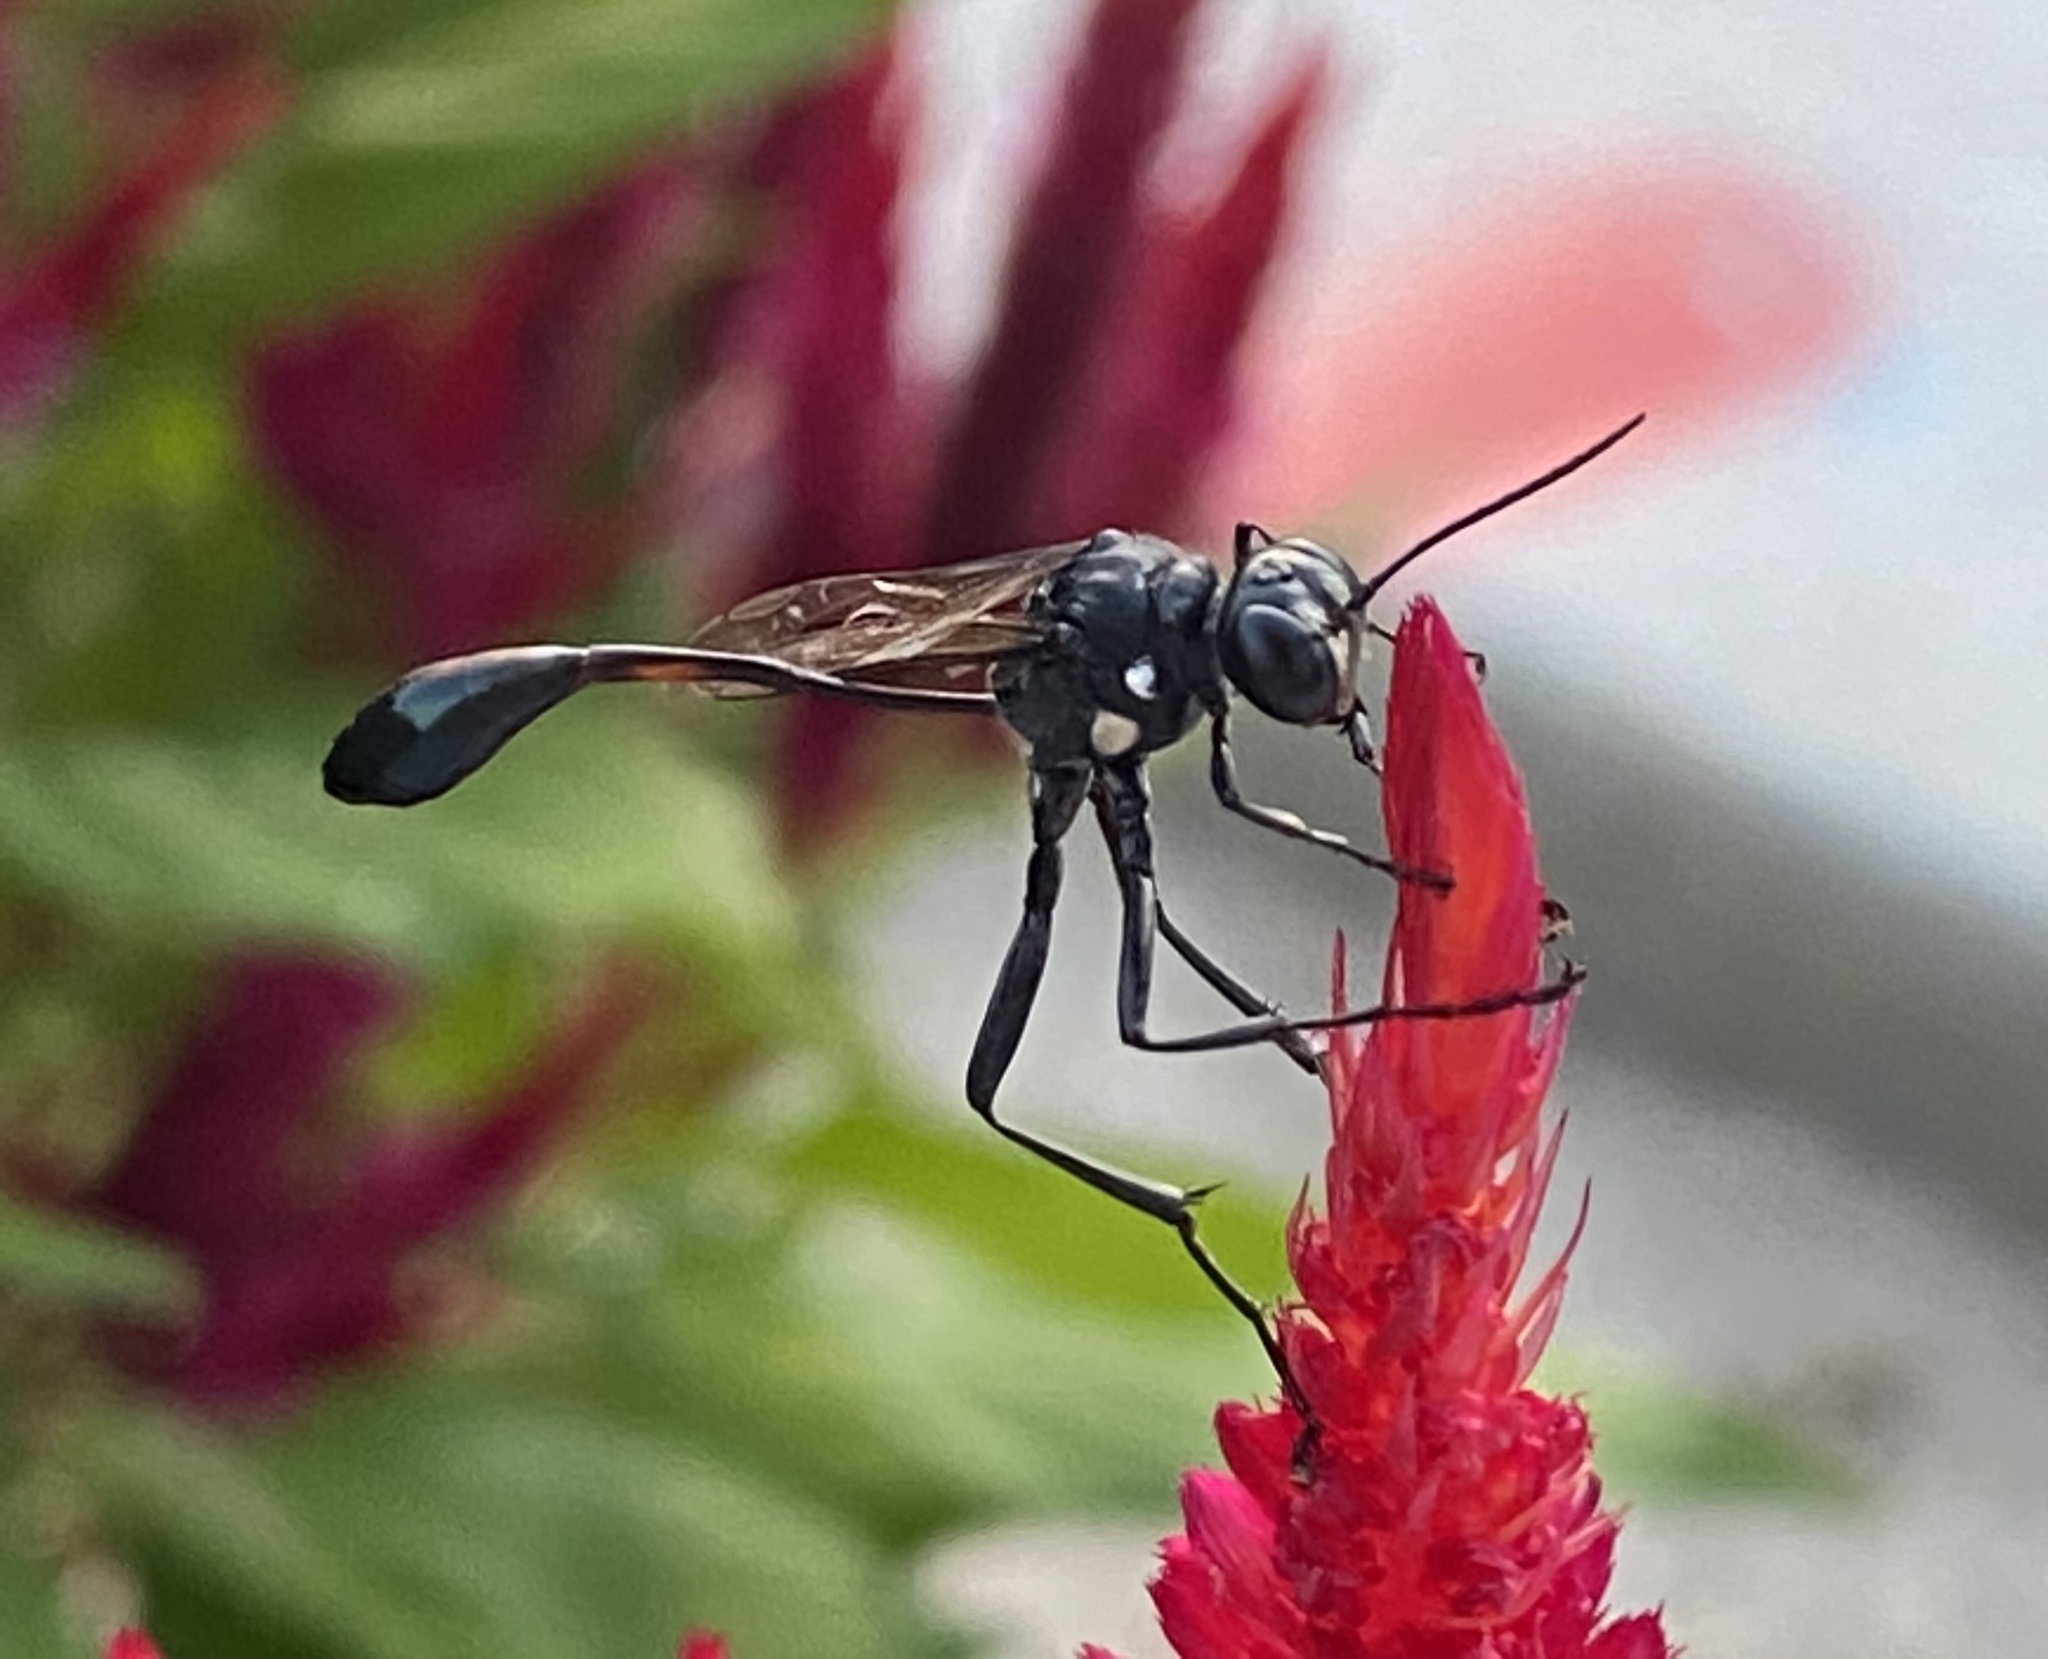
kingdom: Animalia
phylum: Arthropoda
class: Insecta
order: Hymenoptera
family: Sphecidae
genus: Eremnophila
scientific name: Eremnophila aureonotata
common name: Gold-marked thread-waisted wasp
